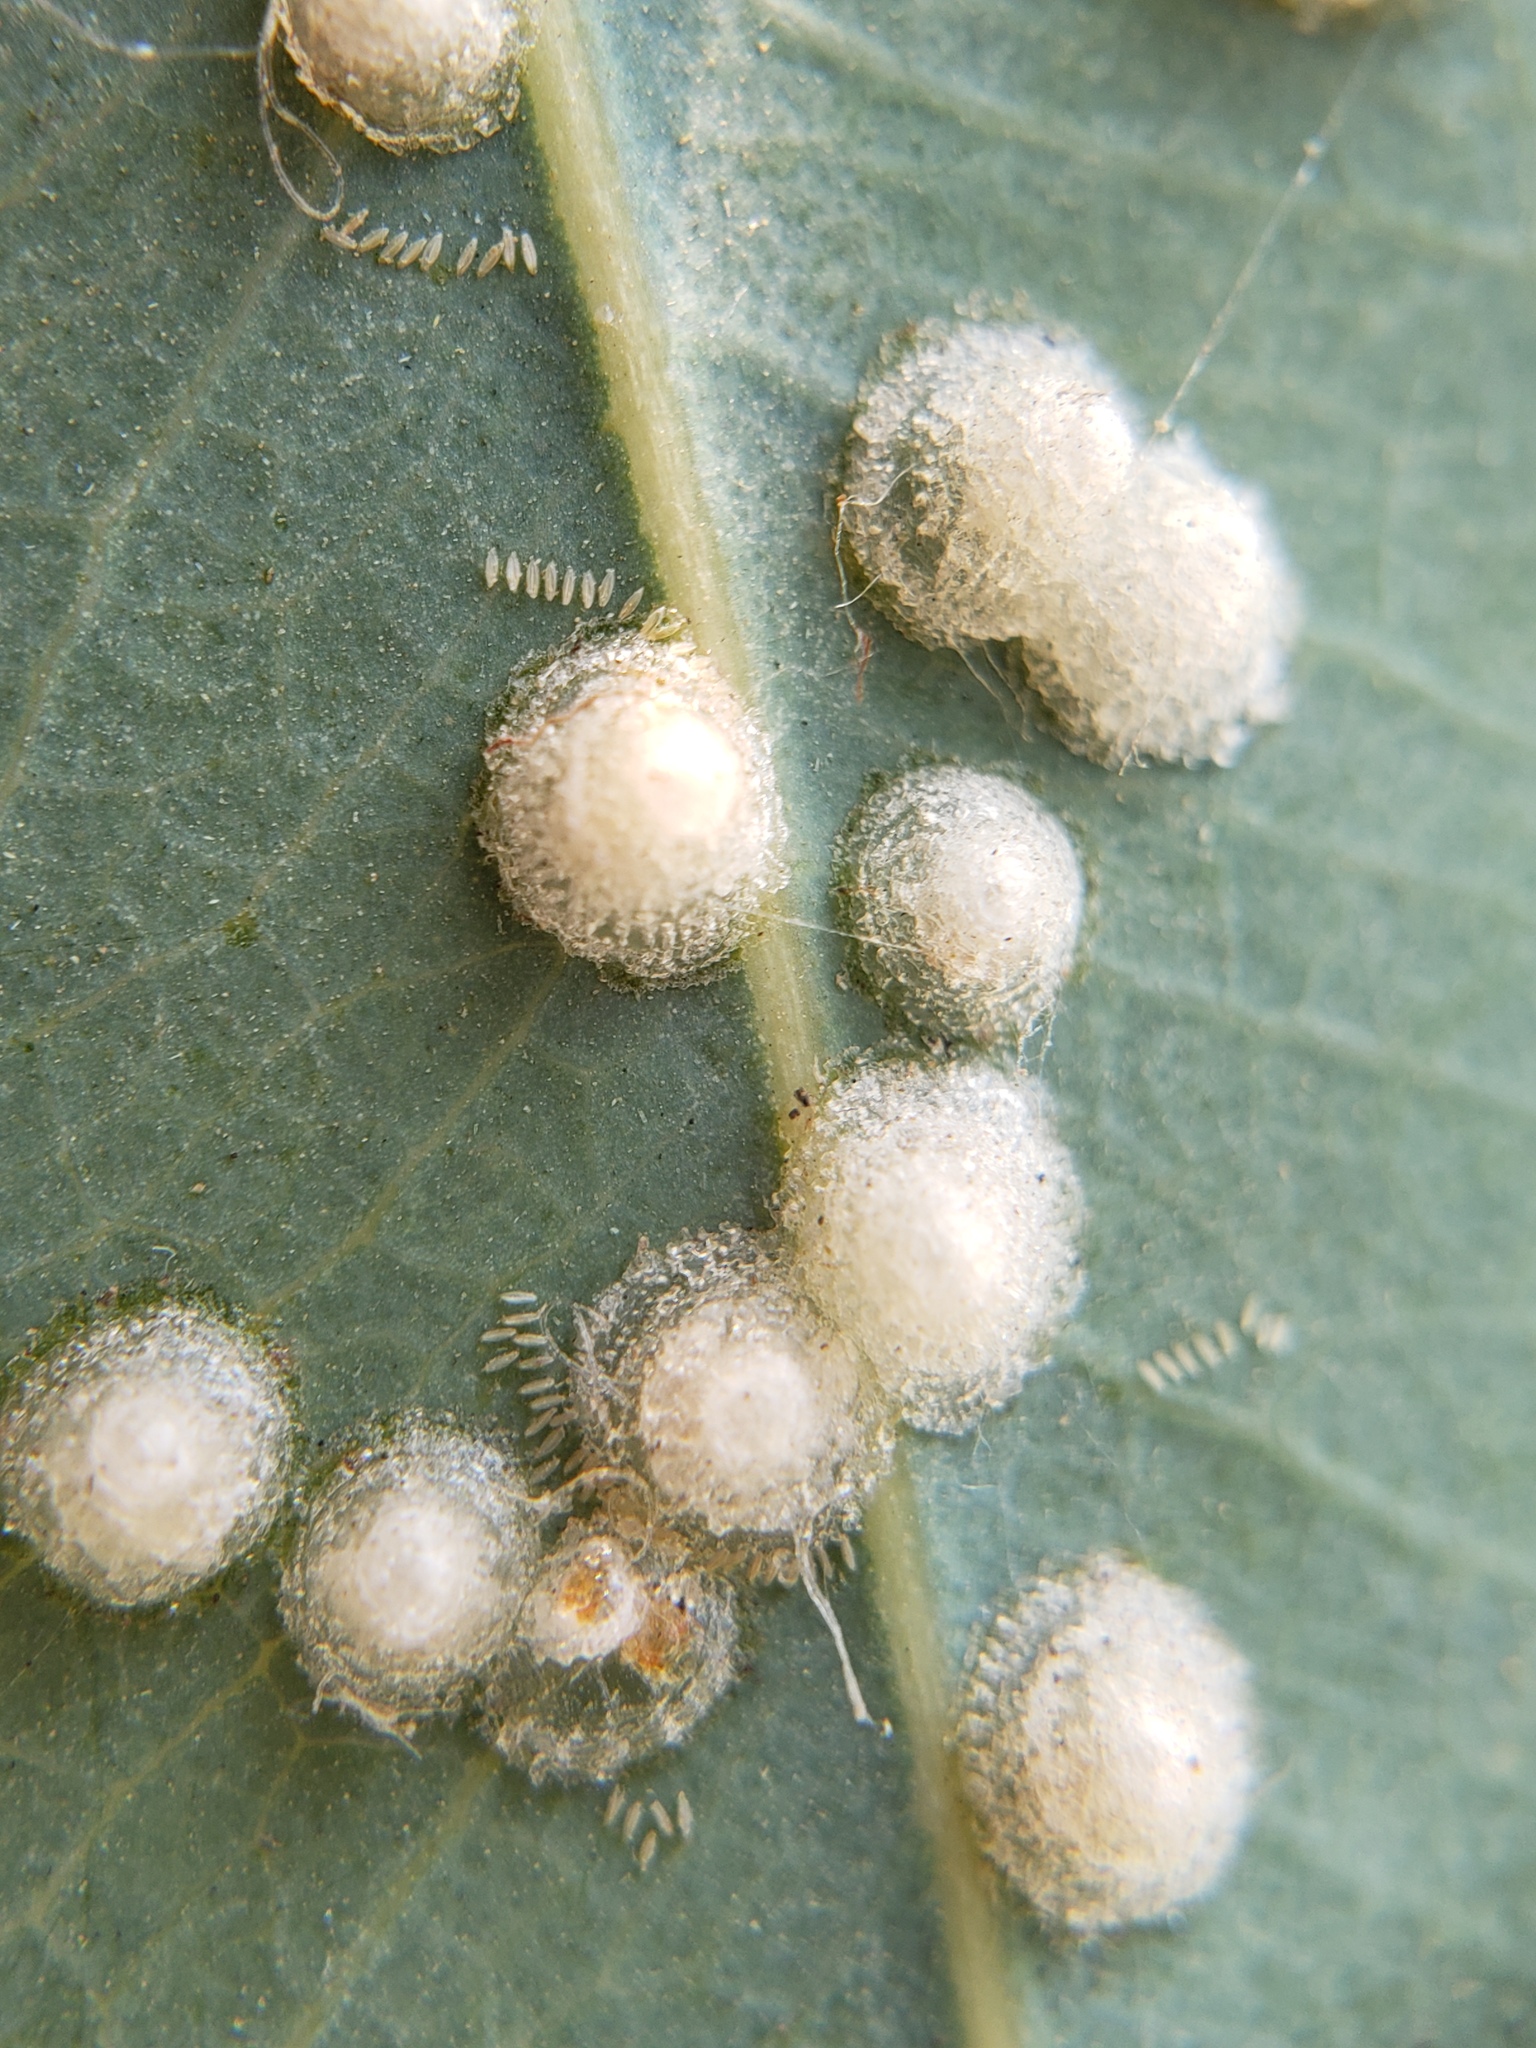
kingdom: Animalia
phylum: Arthropoda
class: Insecta
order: Hemiptera
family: Aphalaridae
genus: Glycaspis
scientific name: Glycaspis brimblecombei
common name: Red gum lerp psyllid
